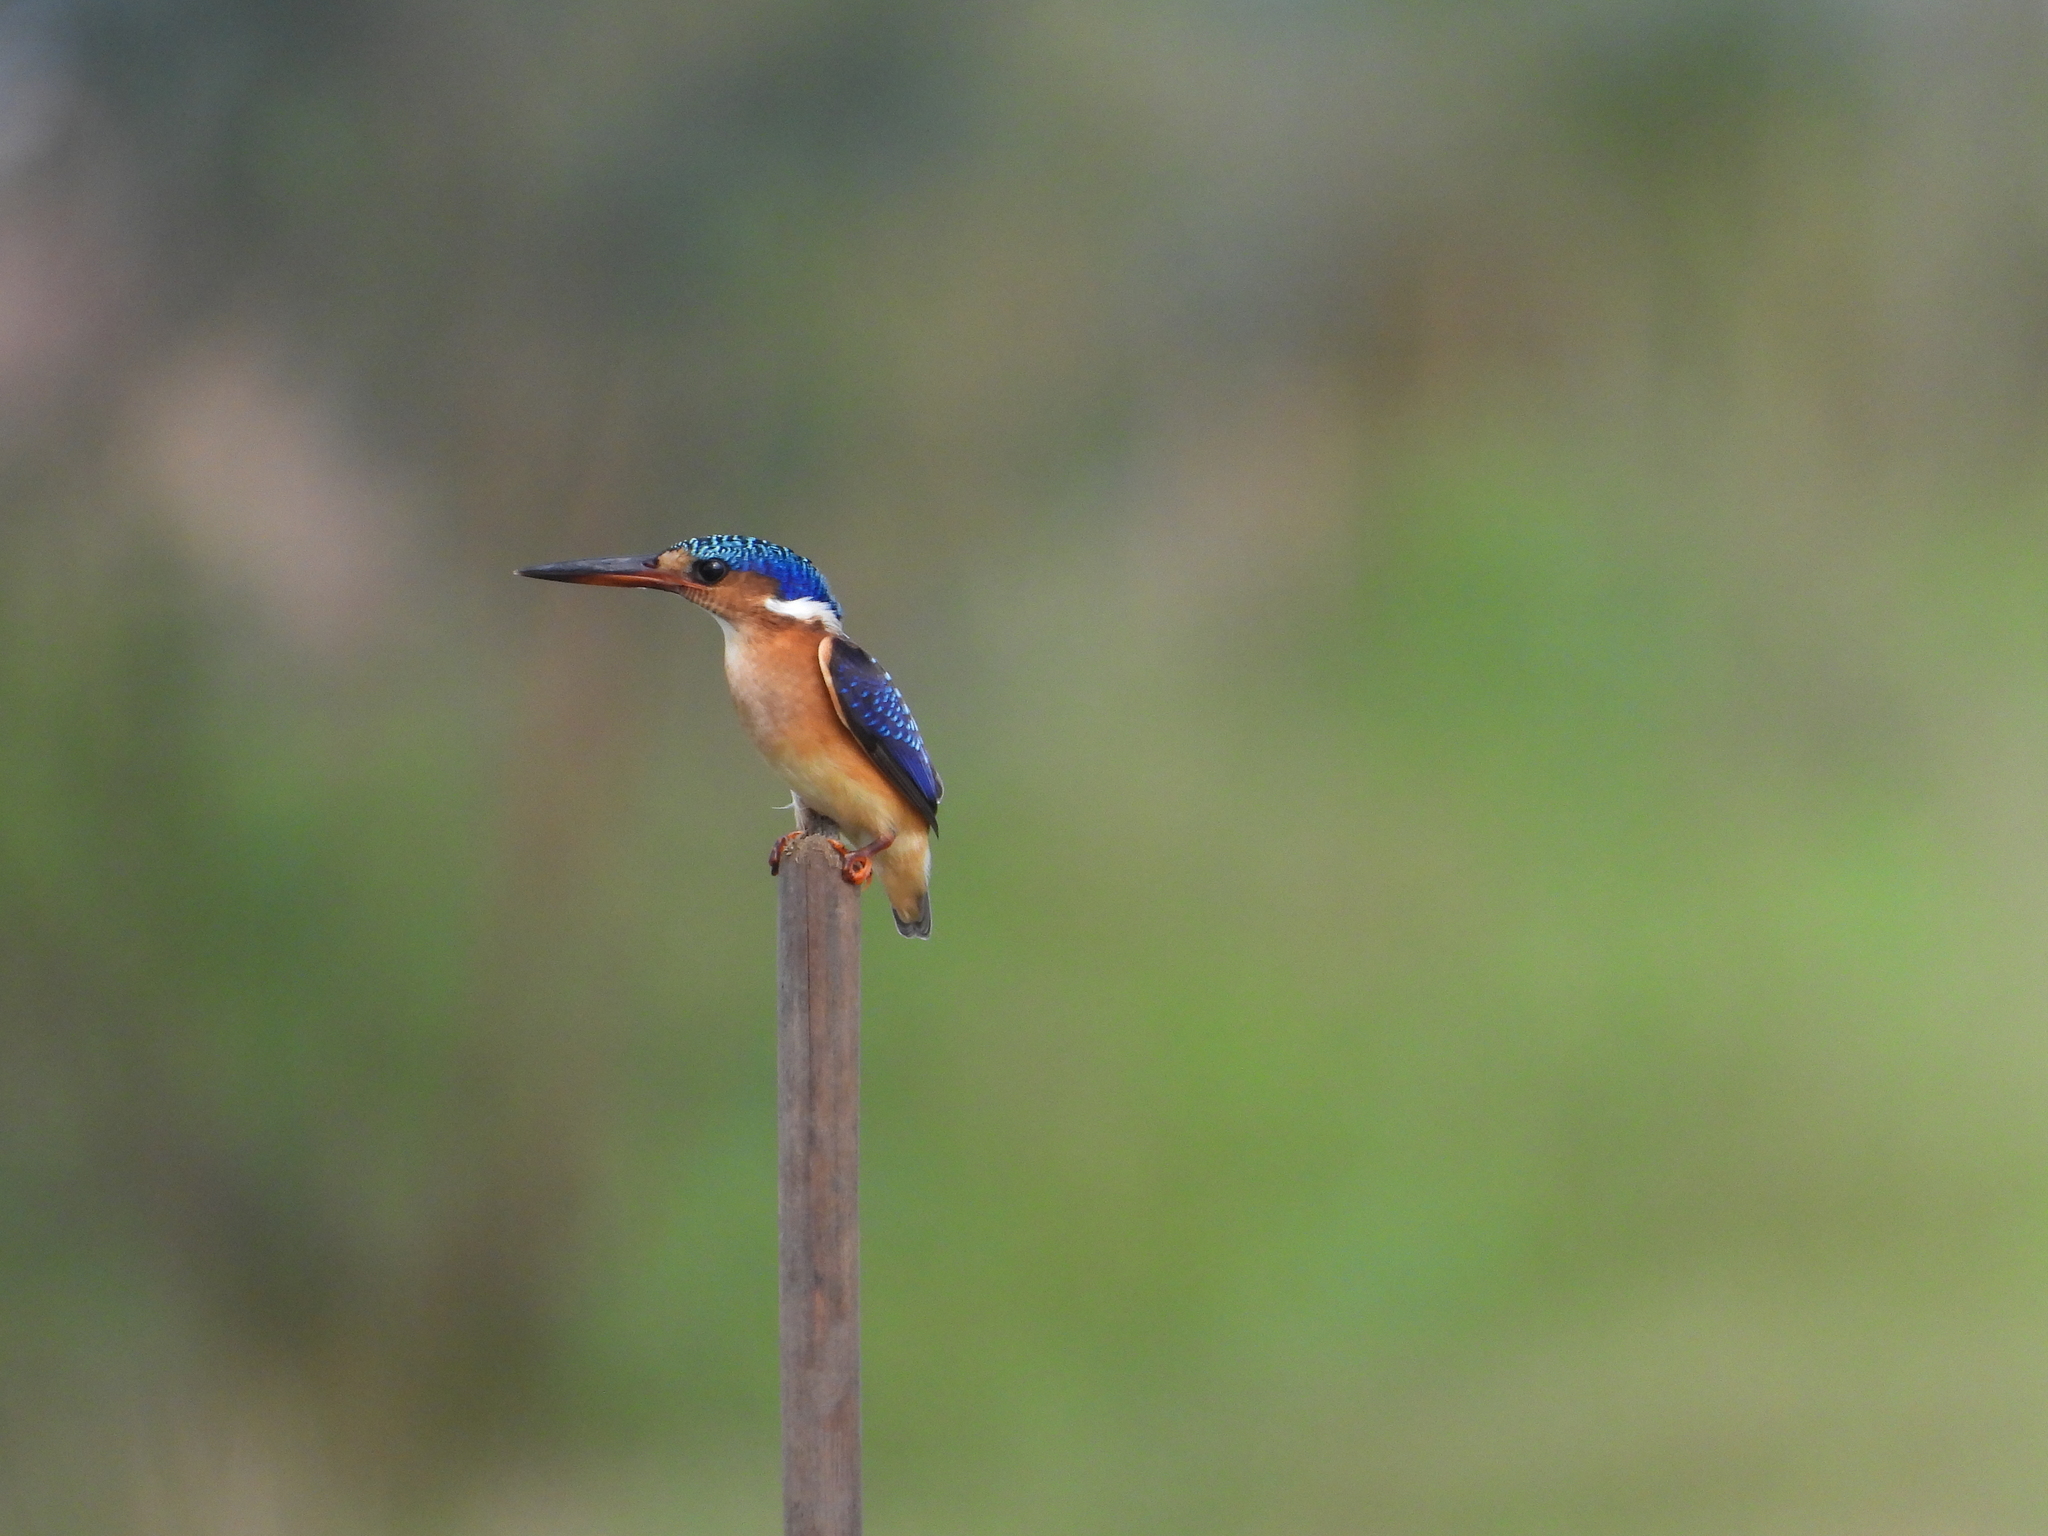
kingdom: Animalia
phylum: Chordata
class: Aves
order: Coraciiformes
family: Alcedinidae
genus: Corythornis
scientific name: Corythornis cristatus
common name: Malachite kingfisher
